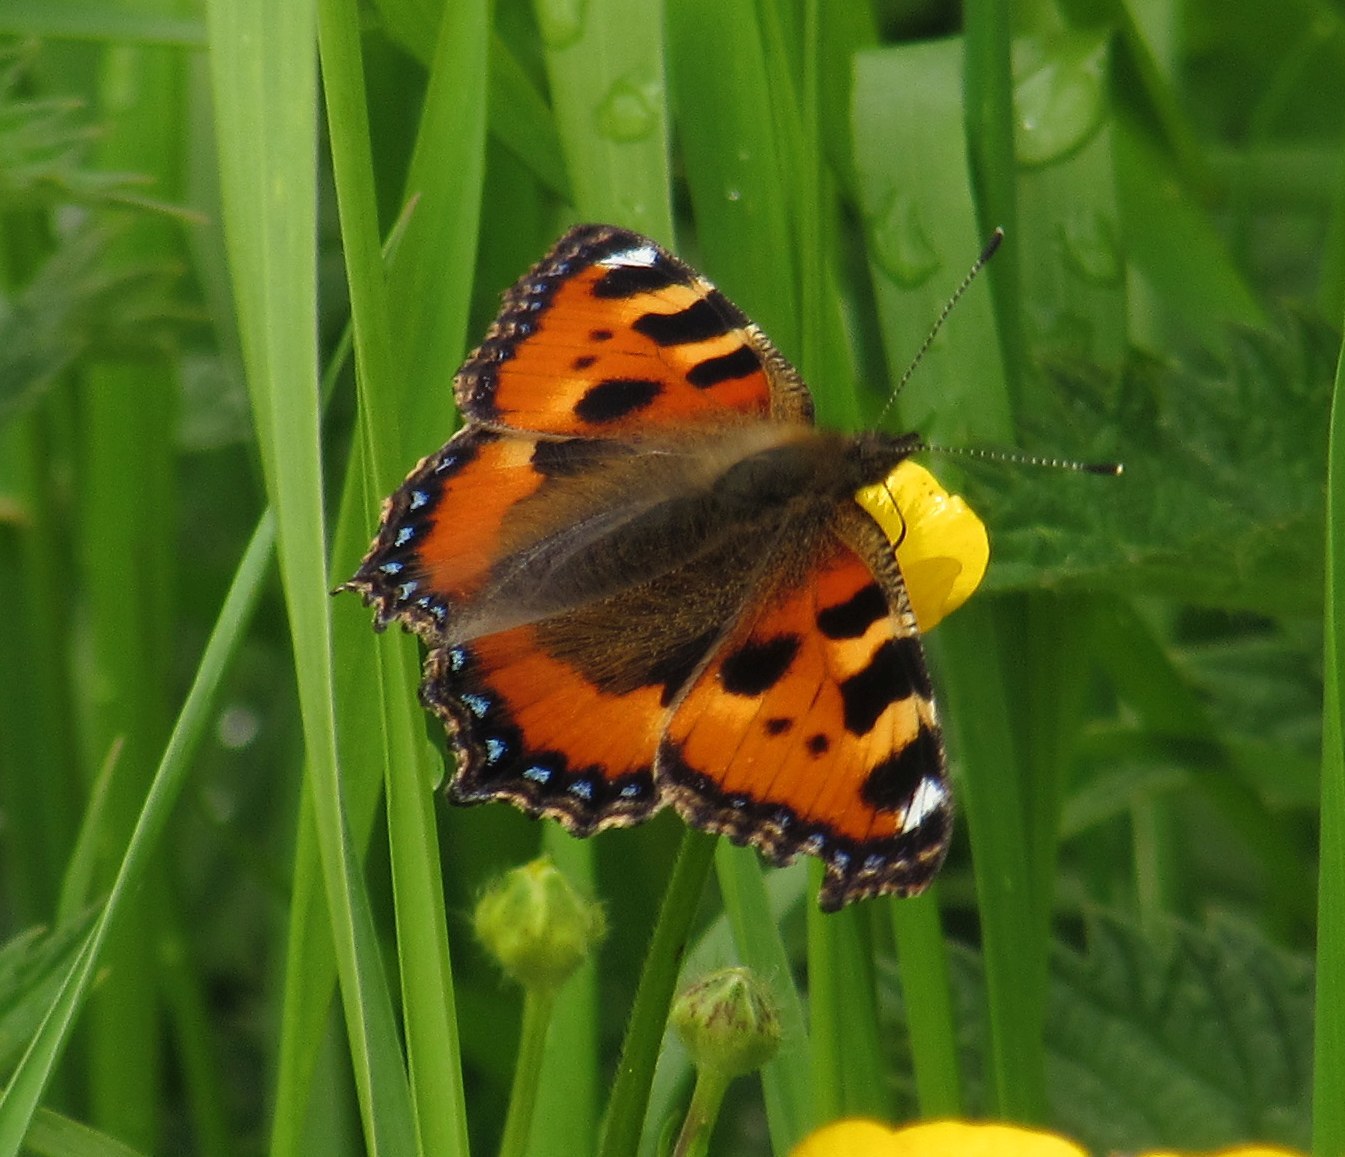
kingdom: Animalia
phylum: Arthropoda
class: Insecta
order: Lepidoptera
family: Nymphalidae
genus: Aglais
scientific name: Aglais urticae
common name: Small tortoiseshell
